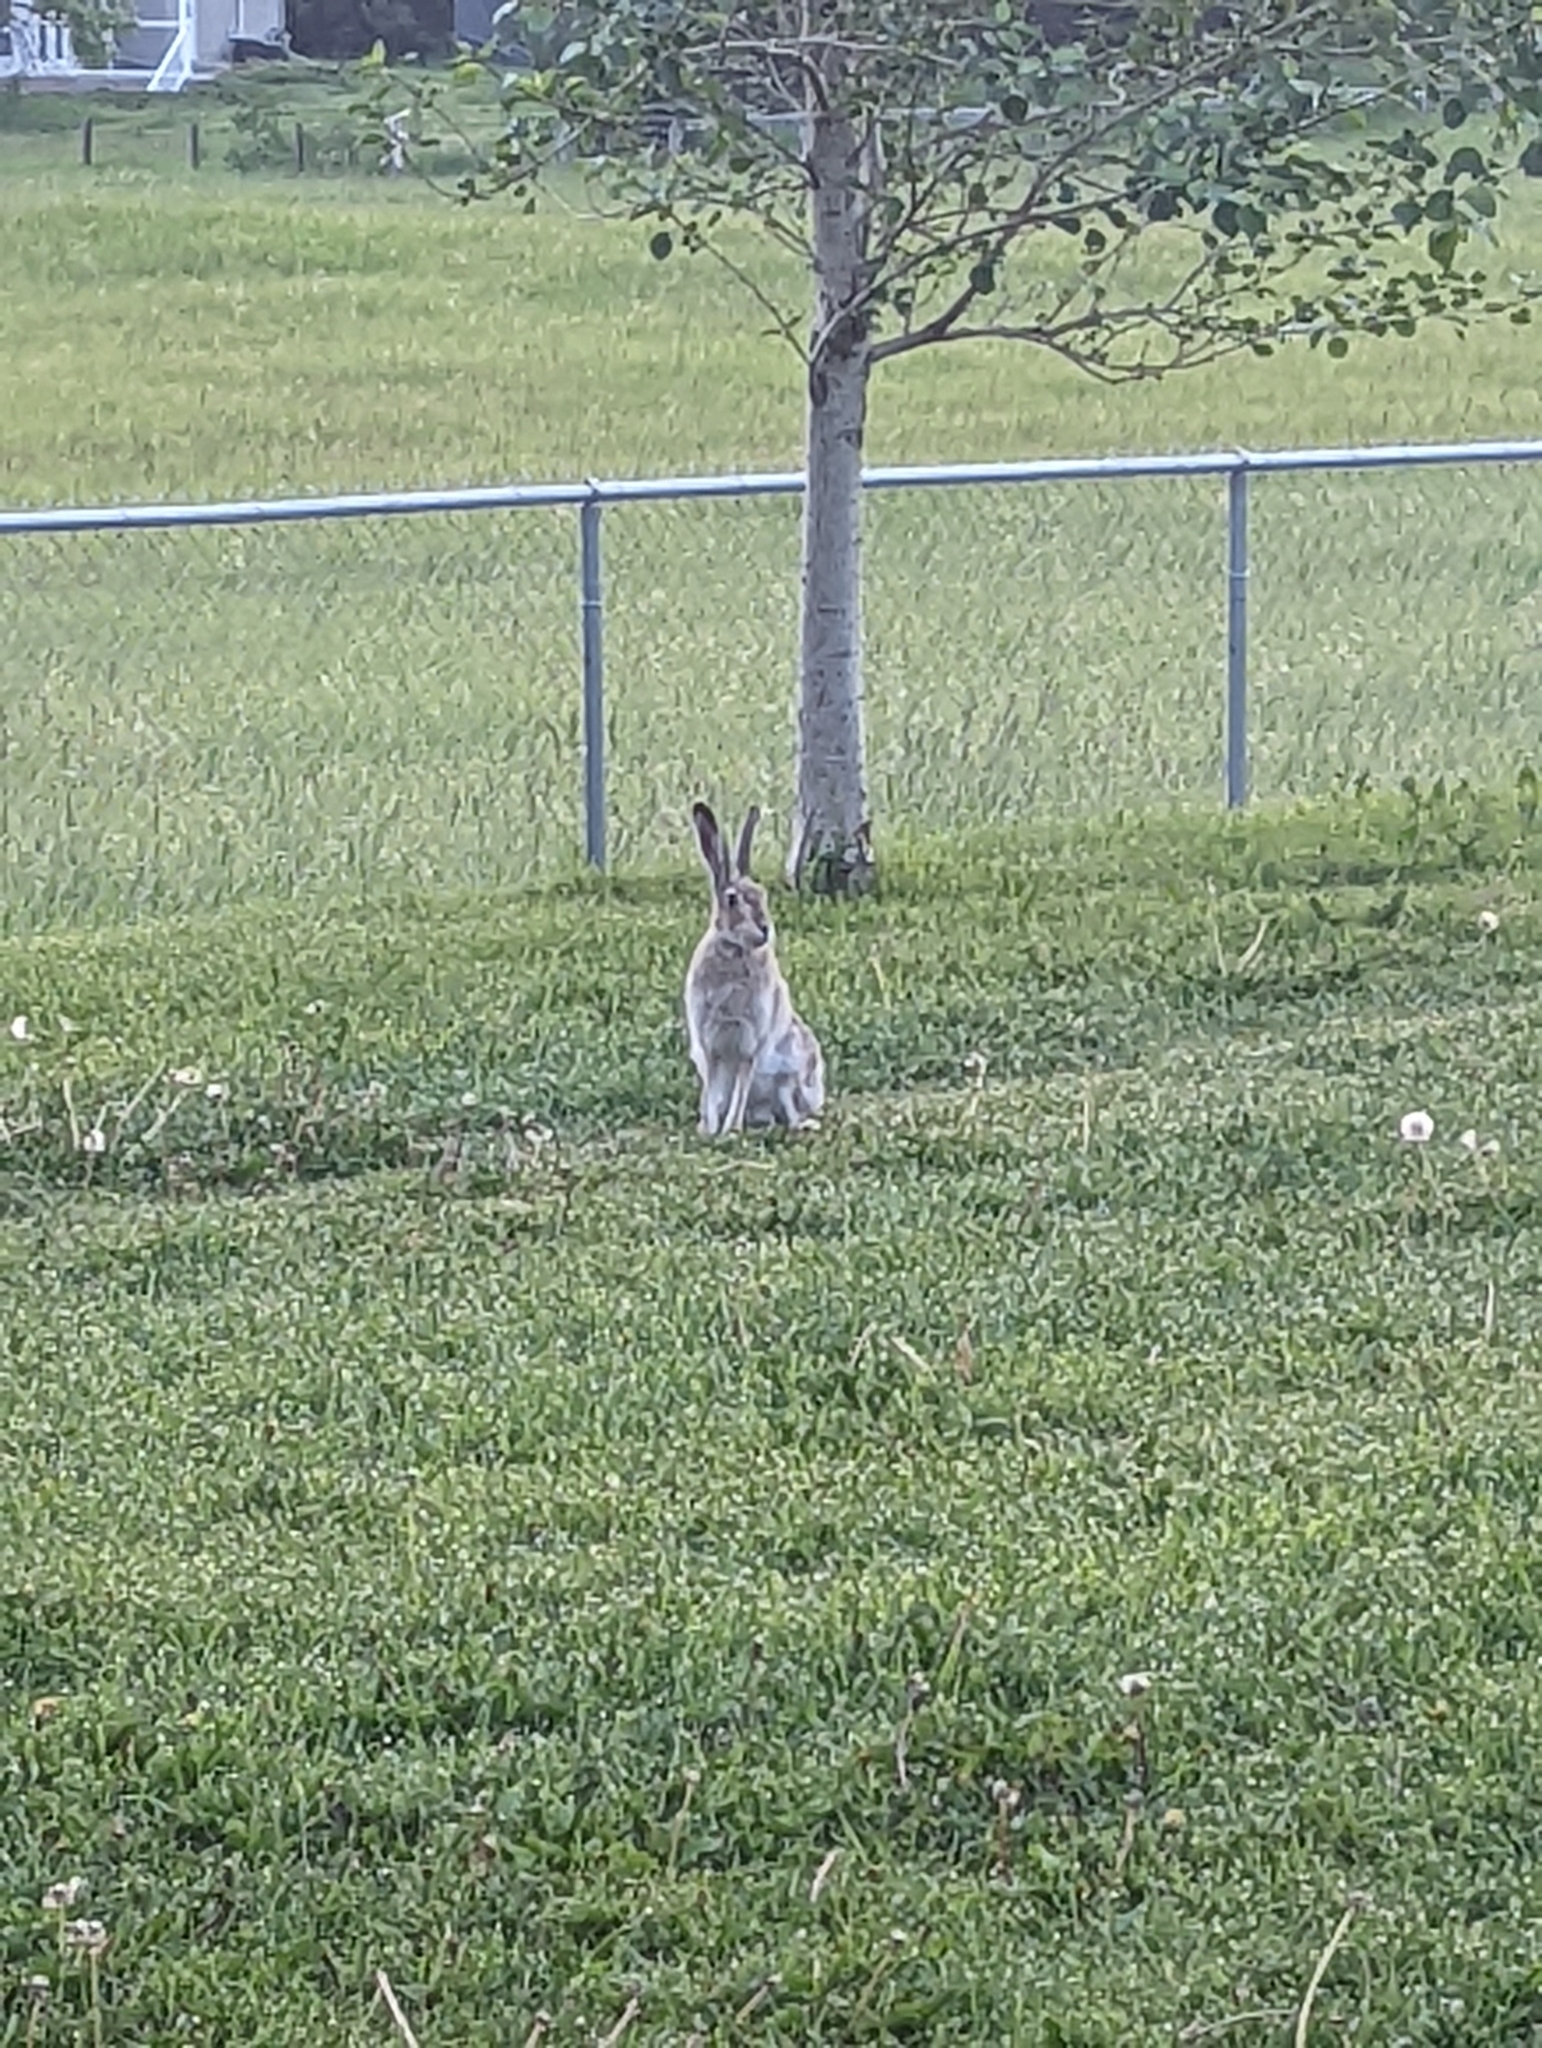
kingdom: Animalia
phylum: Chordata
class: Mammalia
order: Lagomorpha
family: Leporidae
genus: Lepus
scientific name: Lepus townsendii
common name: White-tailed jackrabbit
